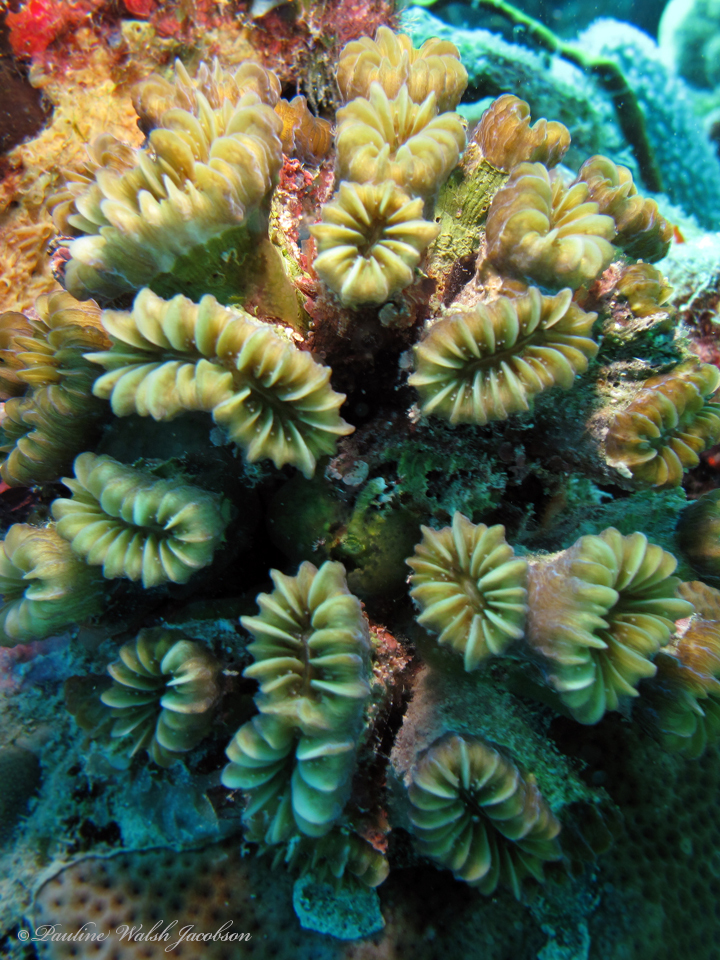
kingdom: Animalia
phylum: Cnidaria
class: Anthozoa
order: Scleractinia
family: Meandrinidae
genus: Eusmilia
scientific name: Eusmilia fastigiata
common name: Smooth flower coral
